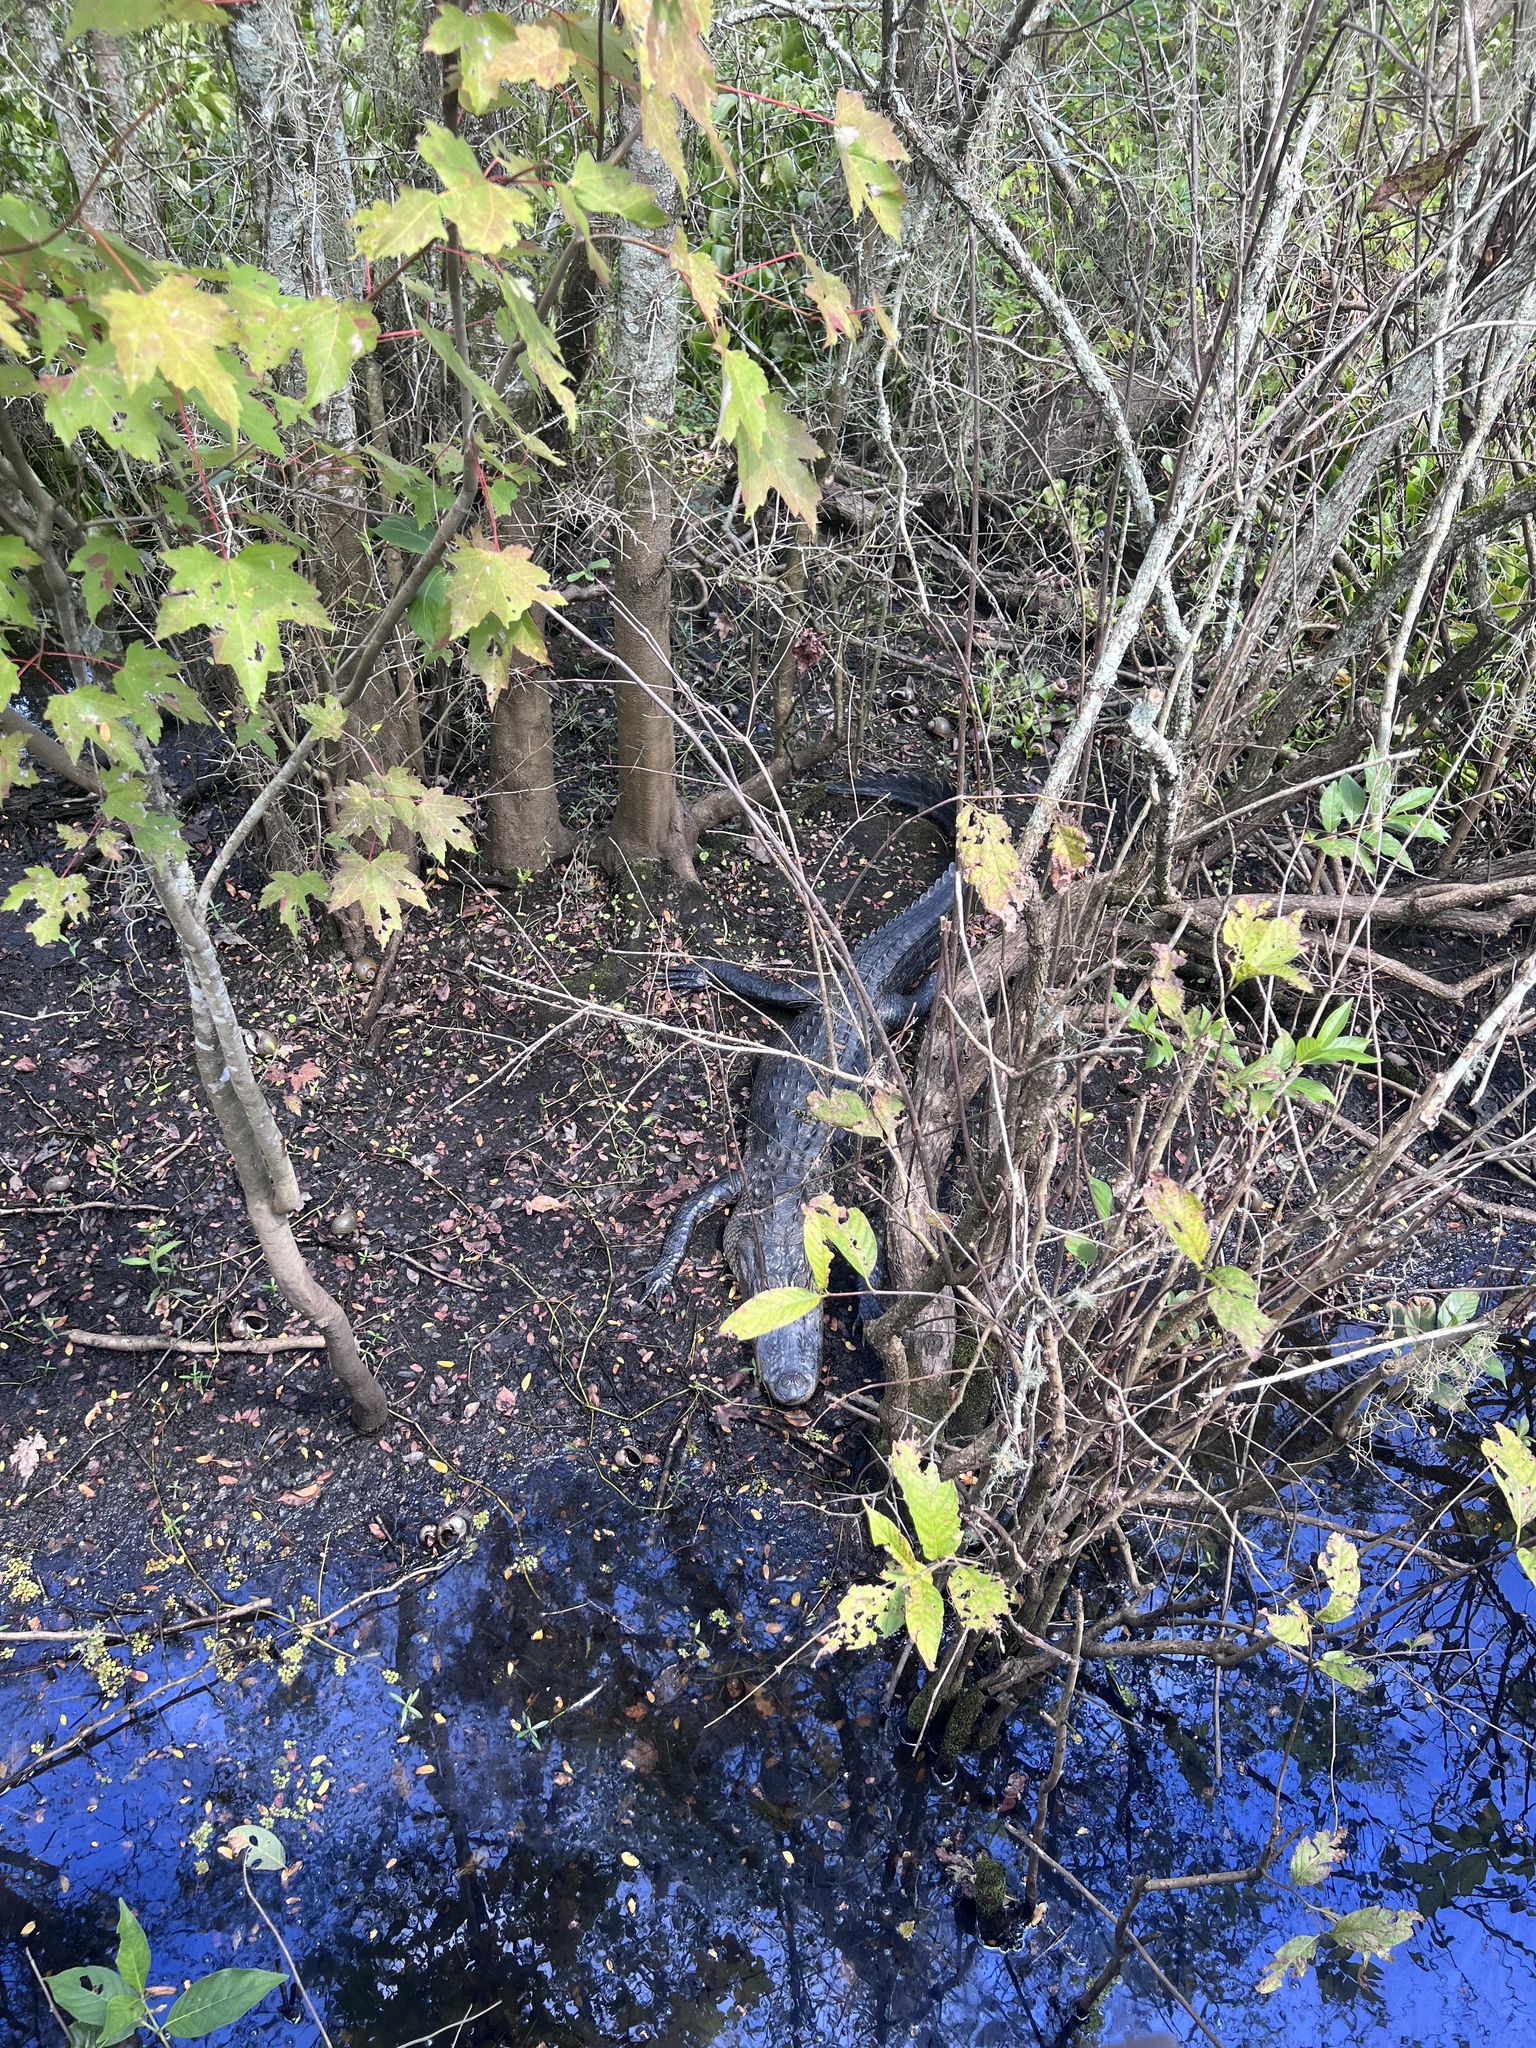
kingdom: Animalia
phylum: Chordata
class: Crocodylia
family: Alligatoridae
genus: Alligator
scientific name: Alligator mississippiensis
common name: American alligator
